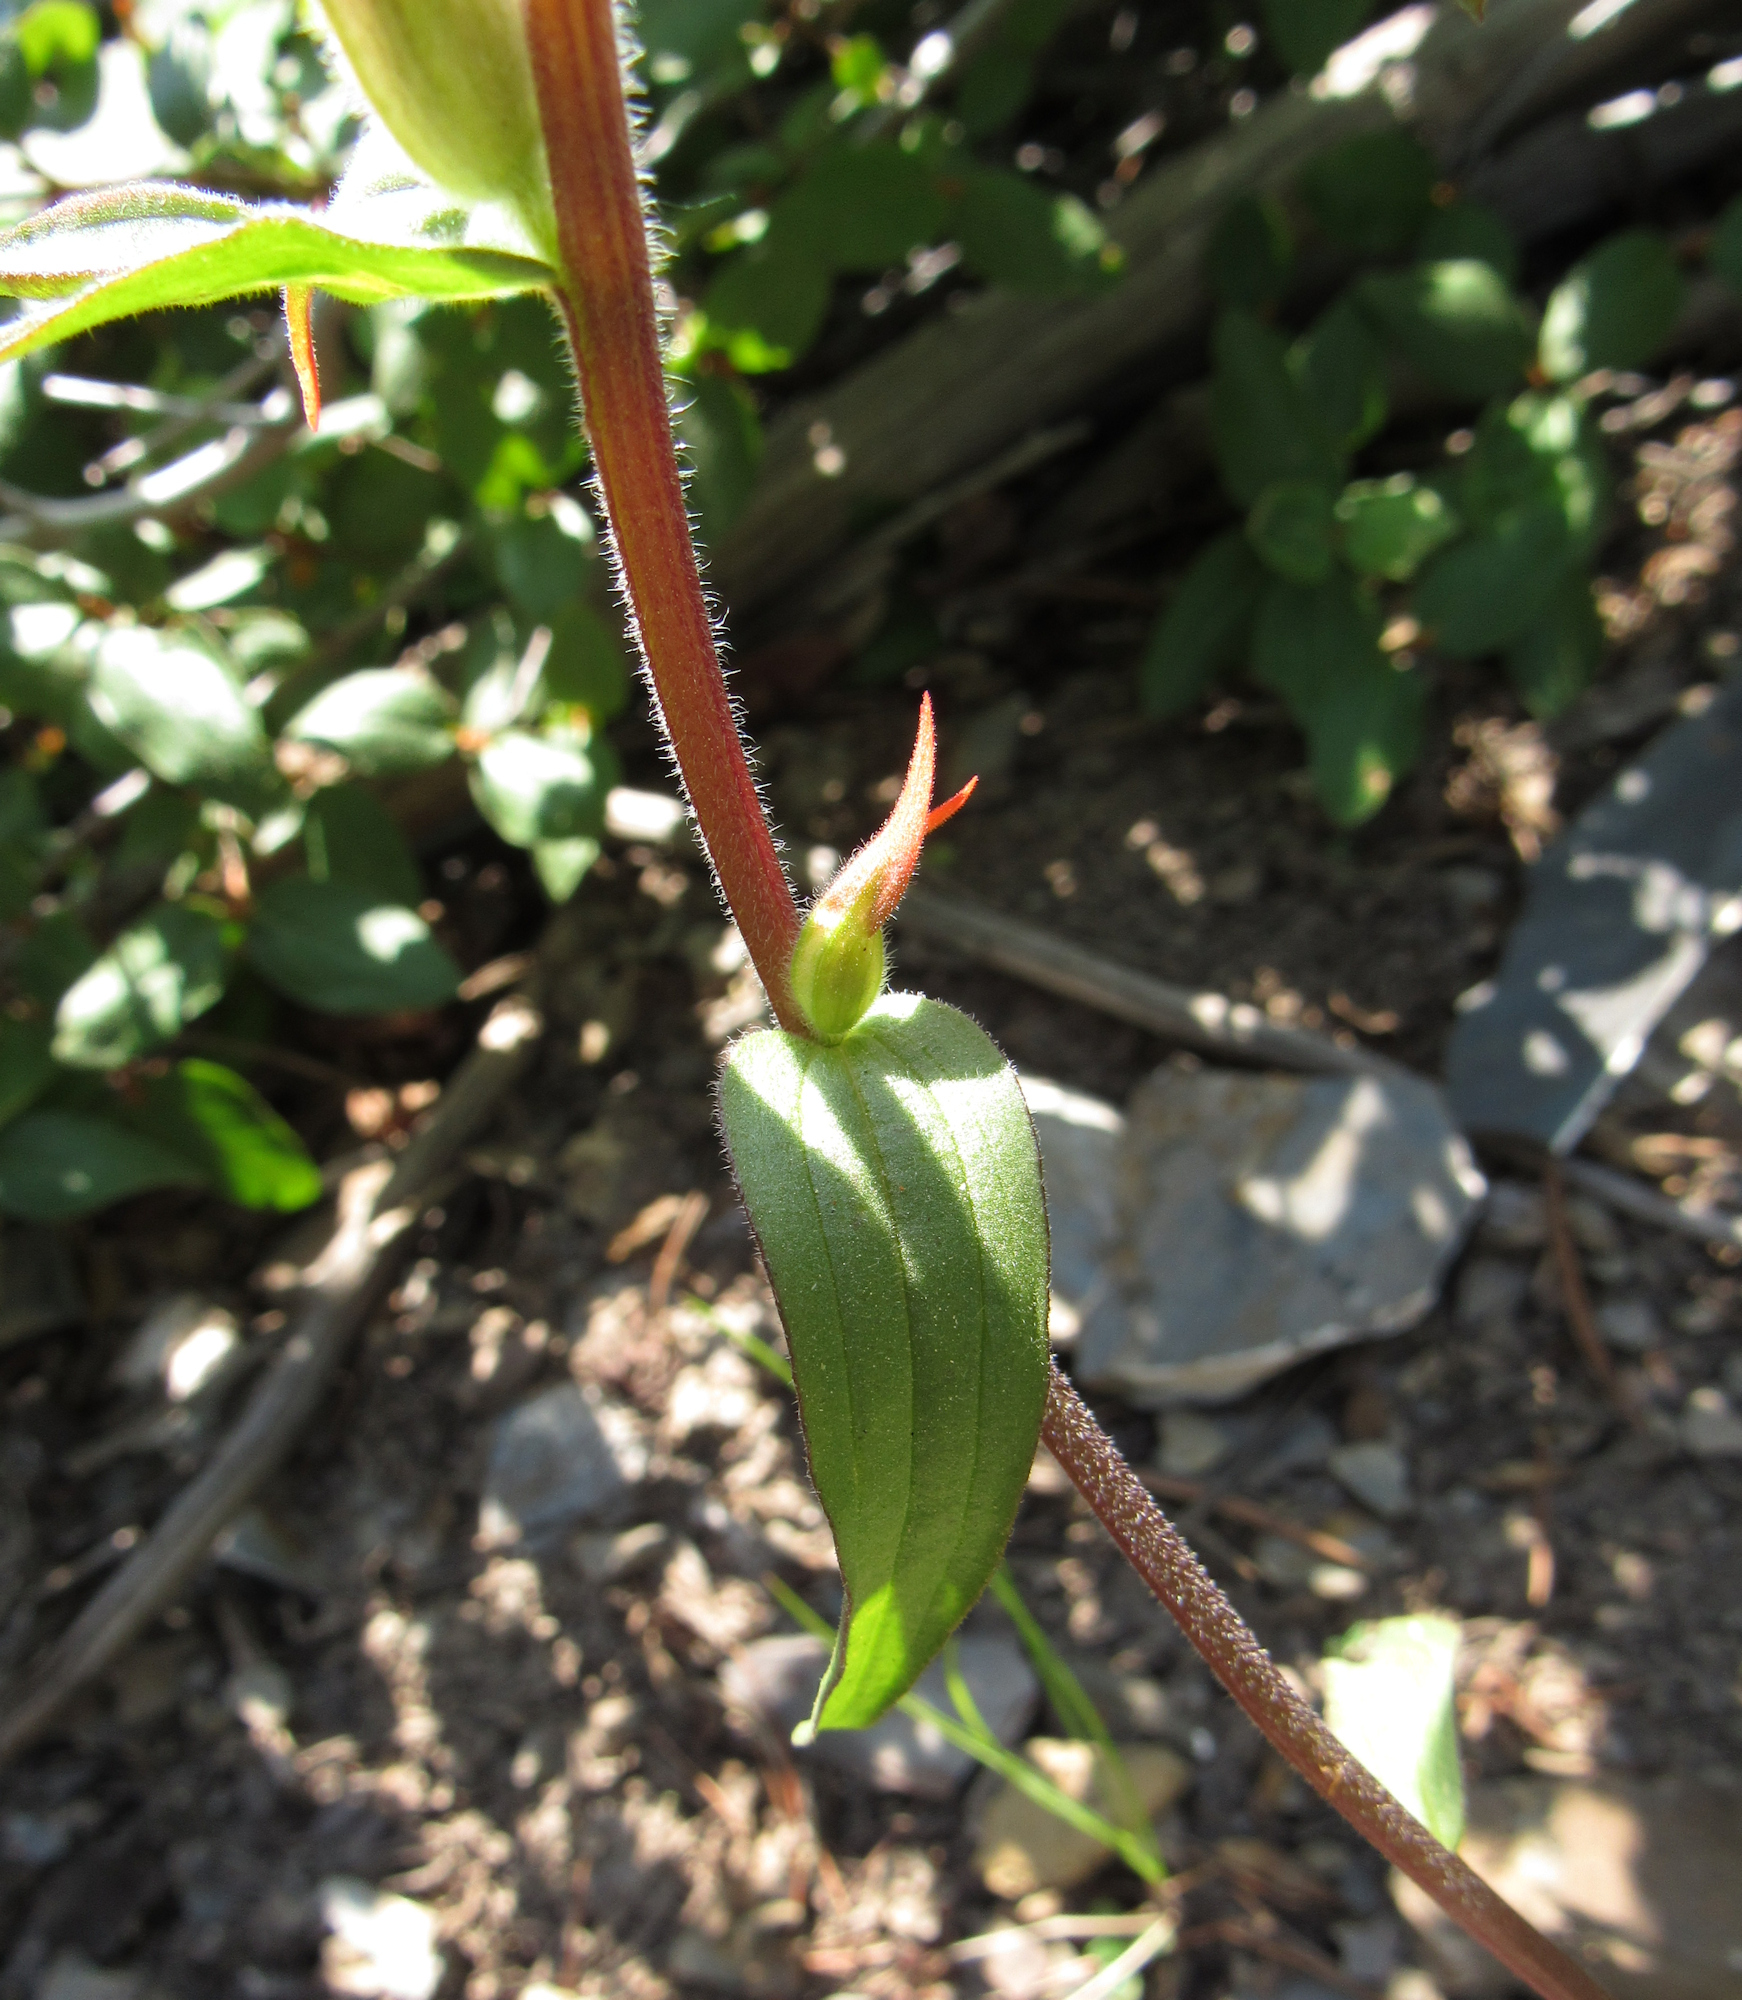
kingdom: Plantae
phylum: Tracheophyta
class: Magnoliopsida
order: Lamiales
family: Orobanchaceae
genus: Castilleja
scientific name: Castilleja miniata
